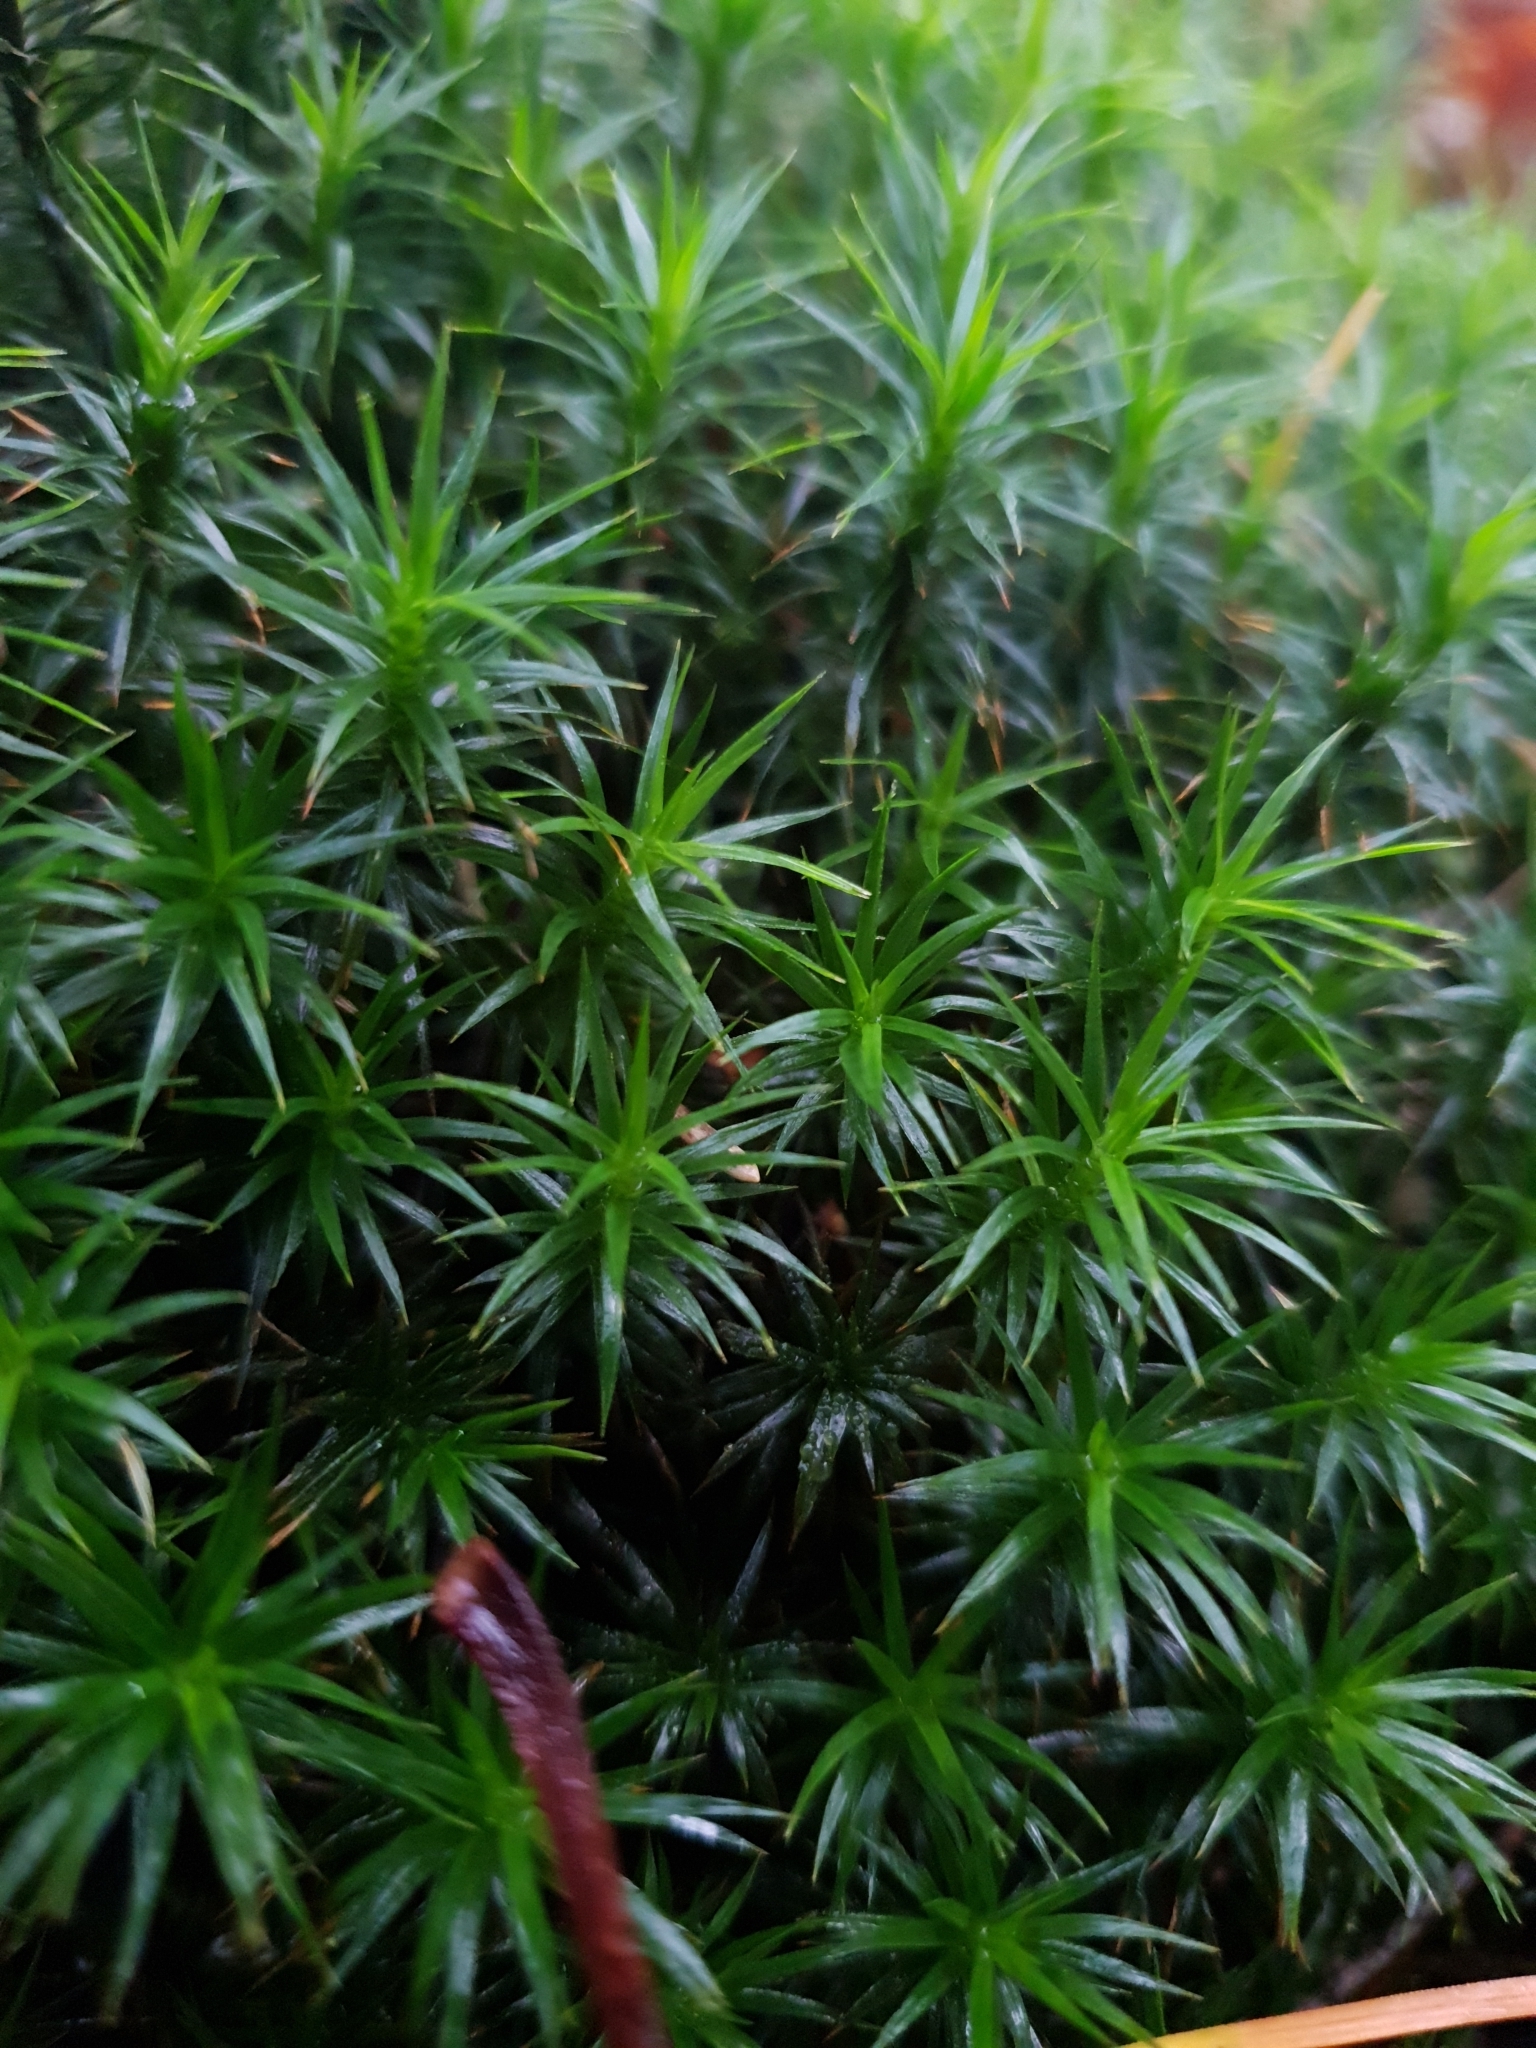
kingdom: Plantae
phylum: Bryophyta
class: Polytrichopsida
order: Polytrichales
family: Polytrichaceae
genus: Polytrichum
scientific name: Polytrichum formosum
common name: Bank haircap moss
